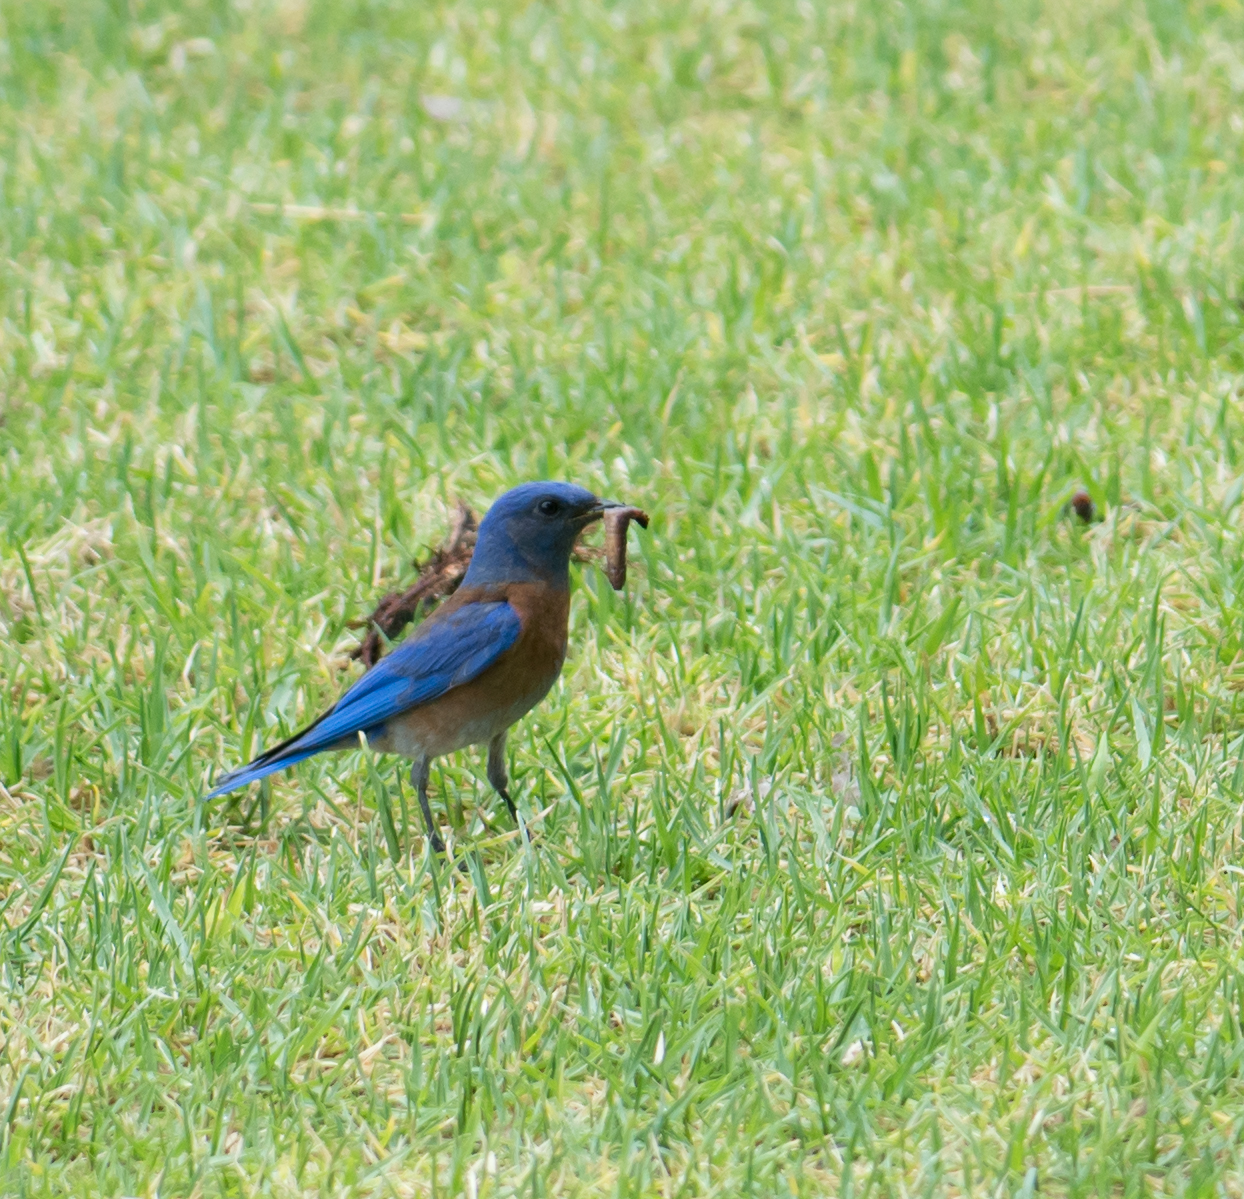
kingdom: Animalia
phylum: Chordata
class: Aves
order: Passeriformes
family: Turdidae
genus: Sialia
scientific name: Sialia mexicana
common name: Western bluebird
